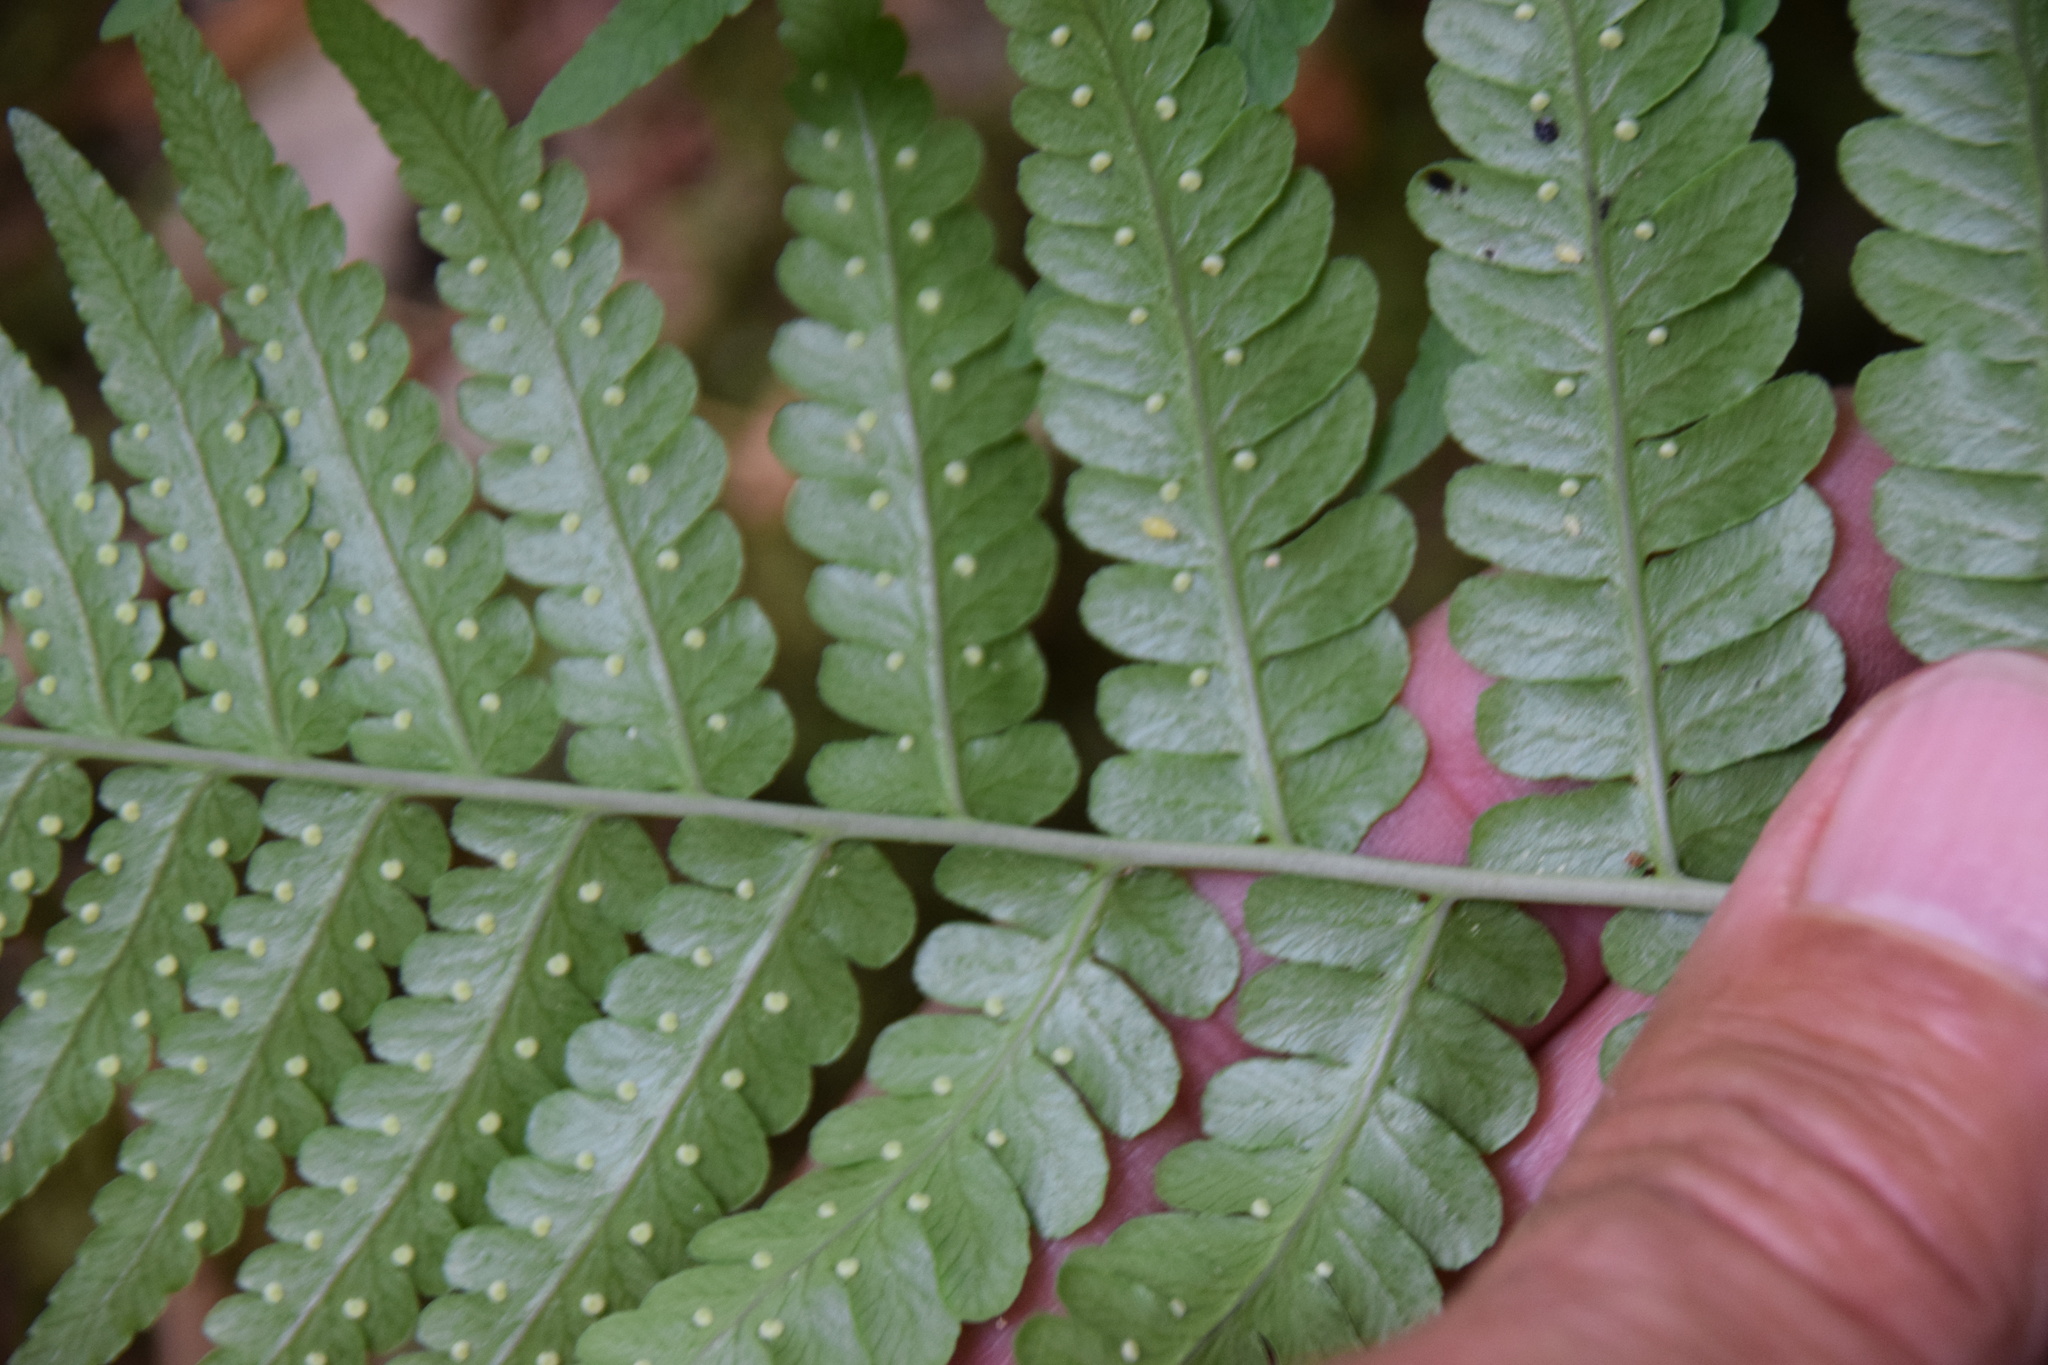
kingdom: Plantae
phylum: Tracheophyta
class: Polypodiopsida
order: Polypodiales
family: Dryopteridaceae
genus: Dryopteris
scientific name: Dryopteris marginalis
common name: Marginal wood fern
